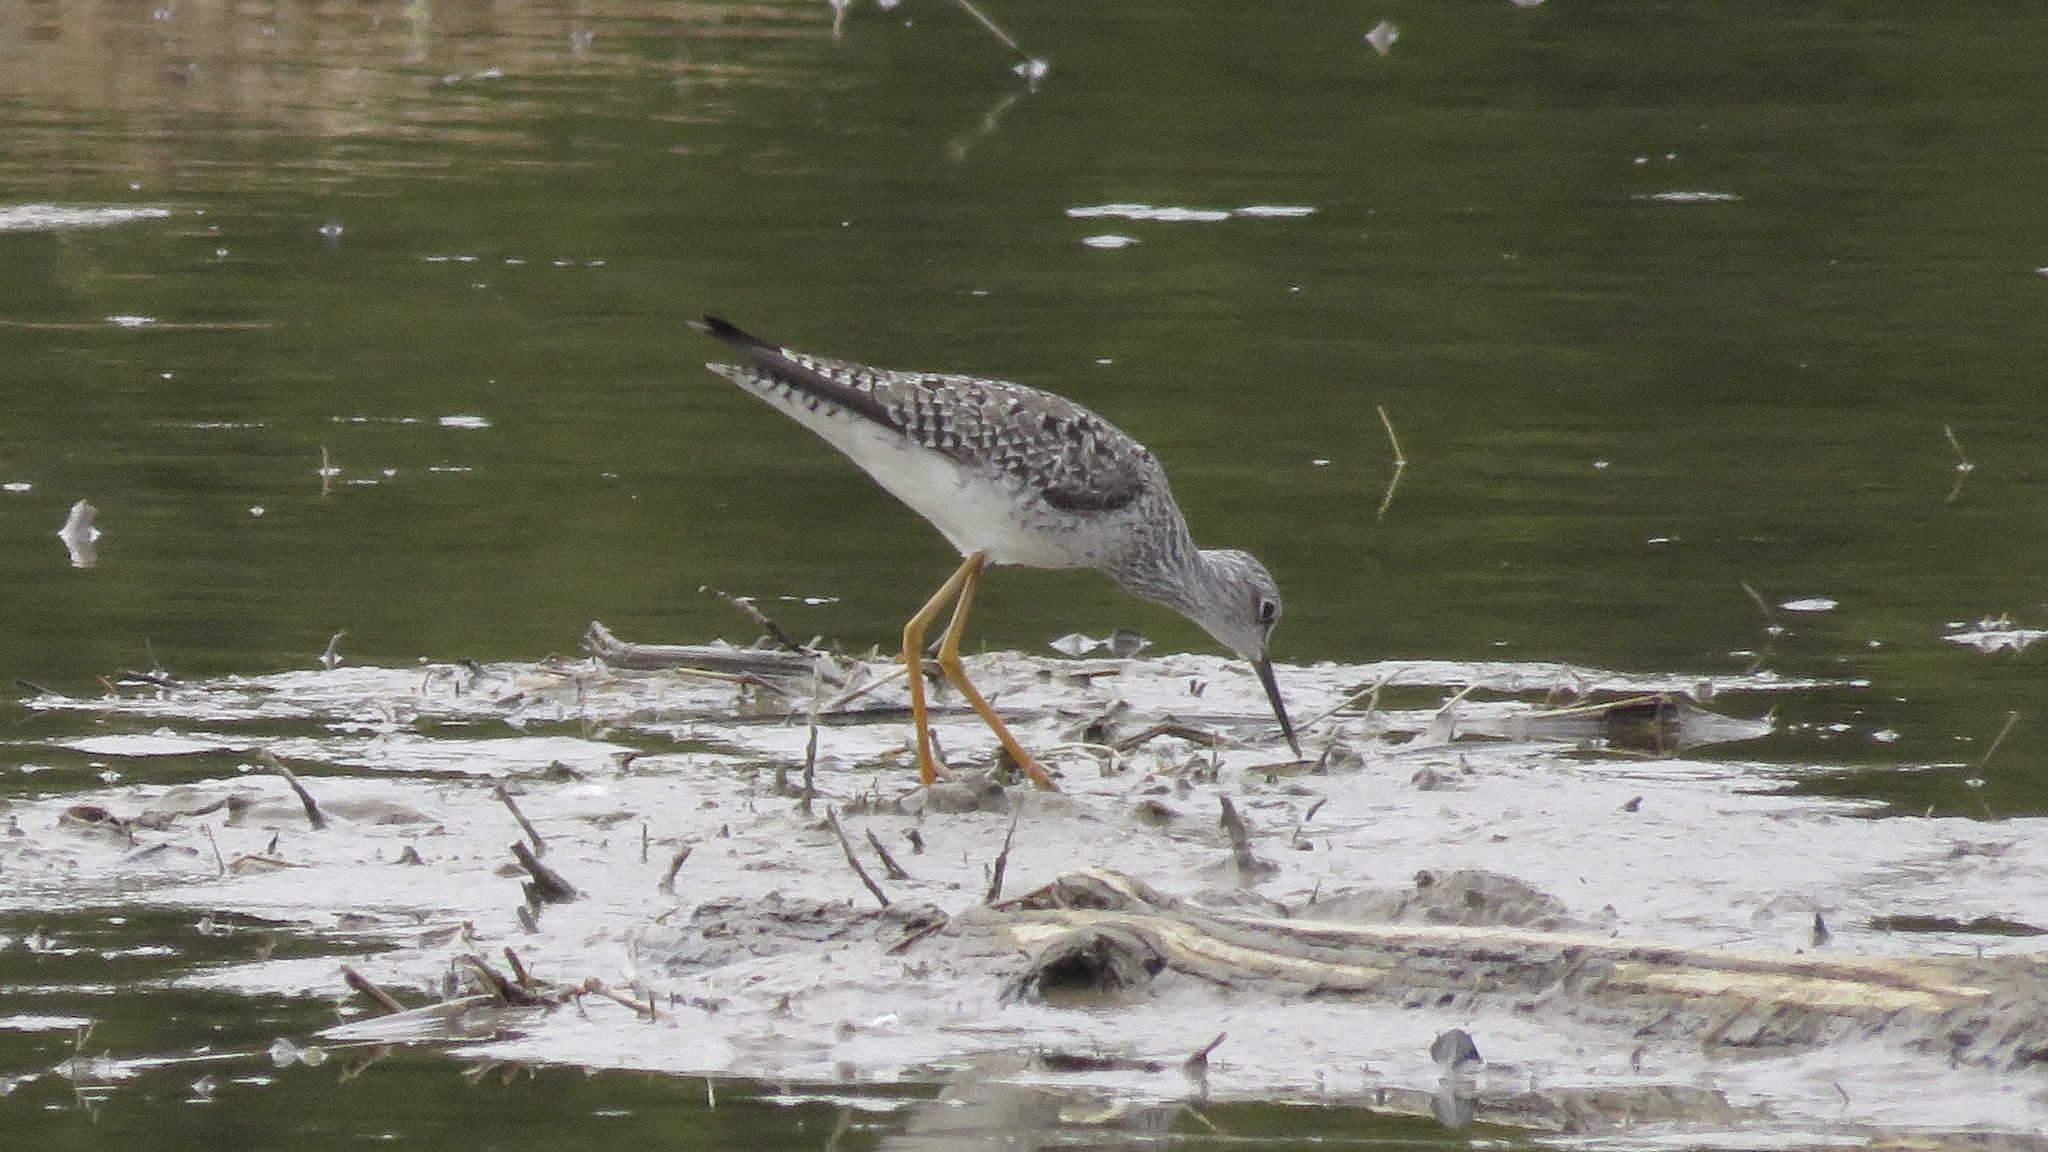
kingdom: Animalia
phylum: Chordata
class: Aves
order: Charadriiformes
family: Scolopacidae
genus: Tringa
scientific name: Tringa flavipes
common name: Lesser yellowlegs
